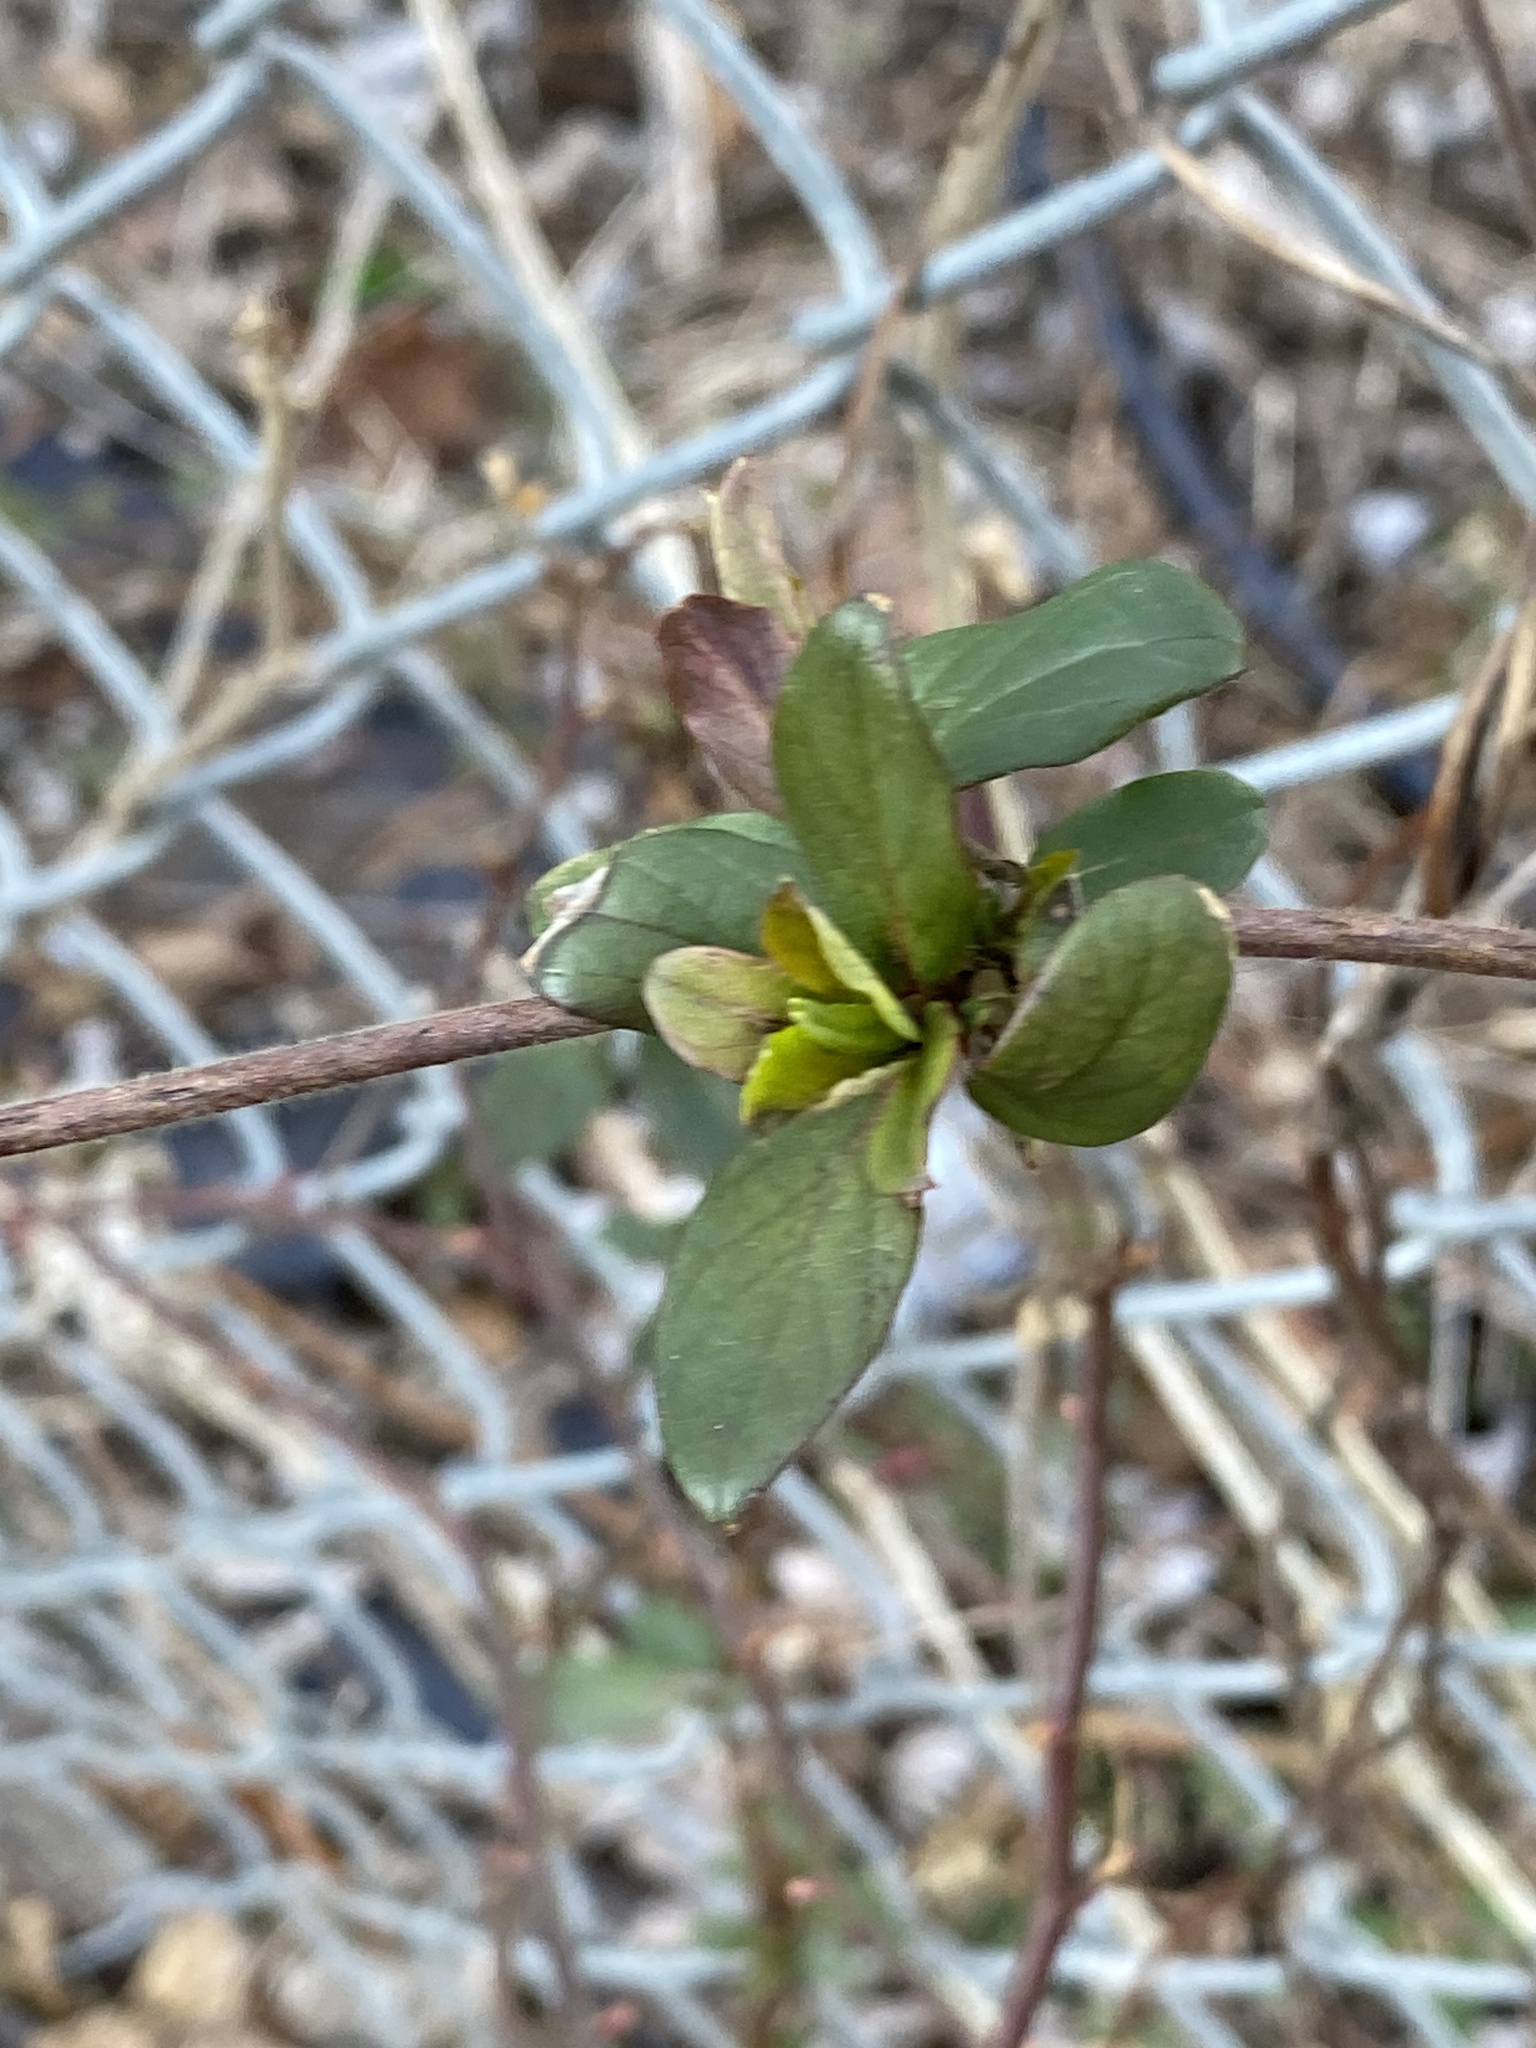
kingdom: Plantae
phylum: Tracheophyta
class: Magnoliopsida
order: Dipsacales
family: Caprifoliaceae
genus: Lonicera
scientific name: Lonicera japonica
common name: Japanese honeysuckle
